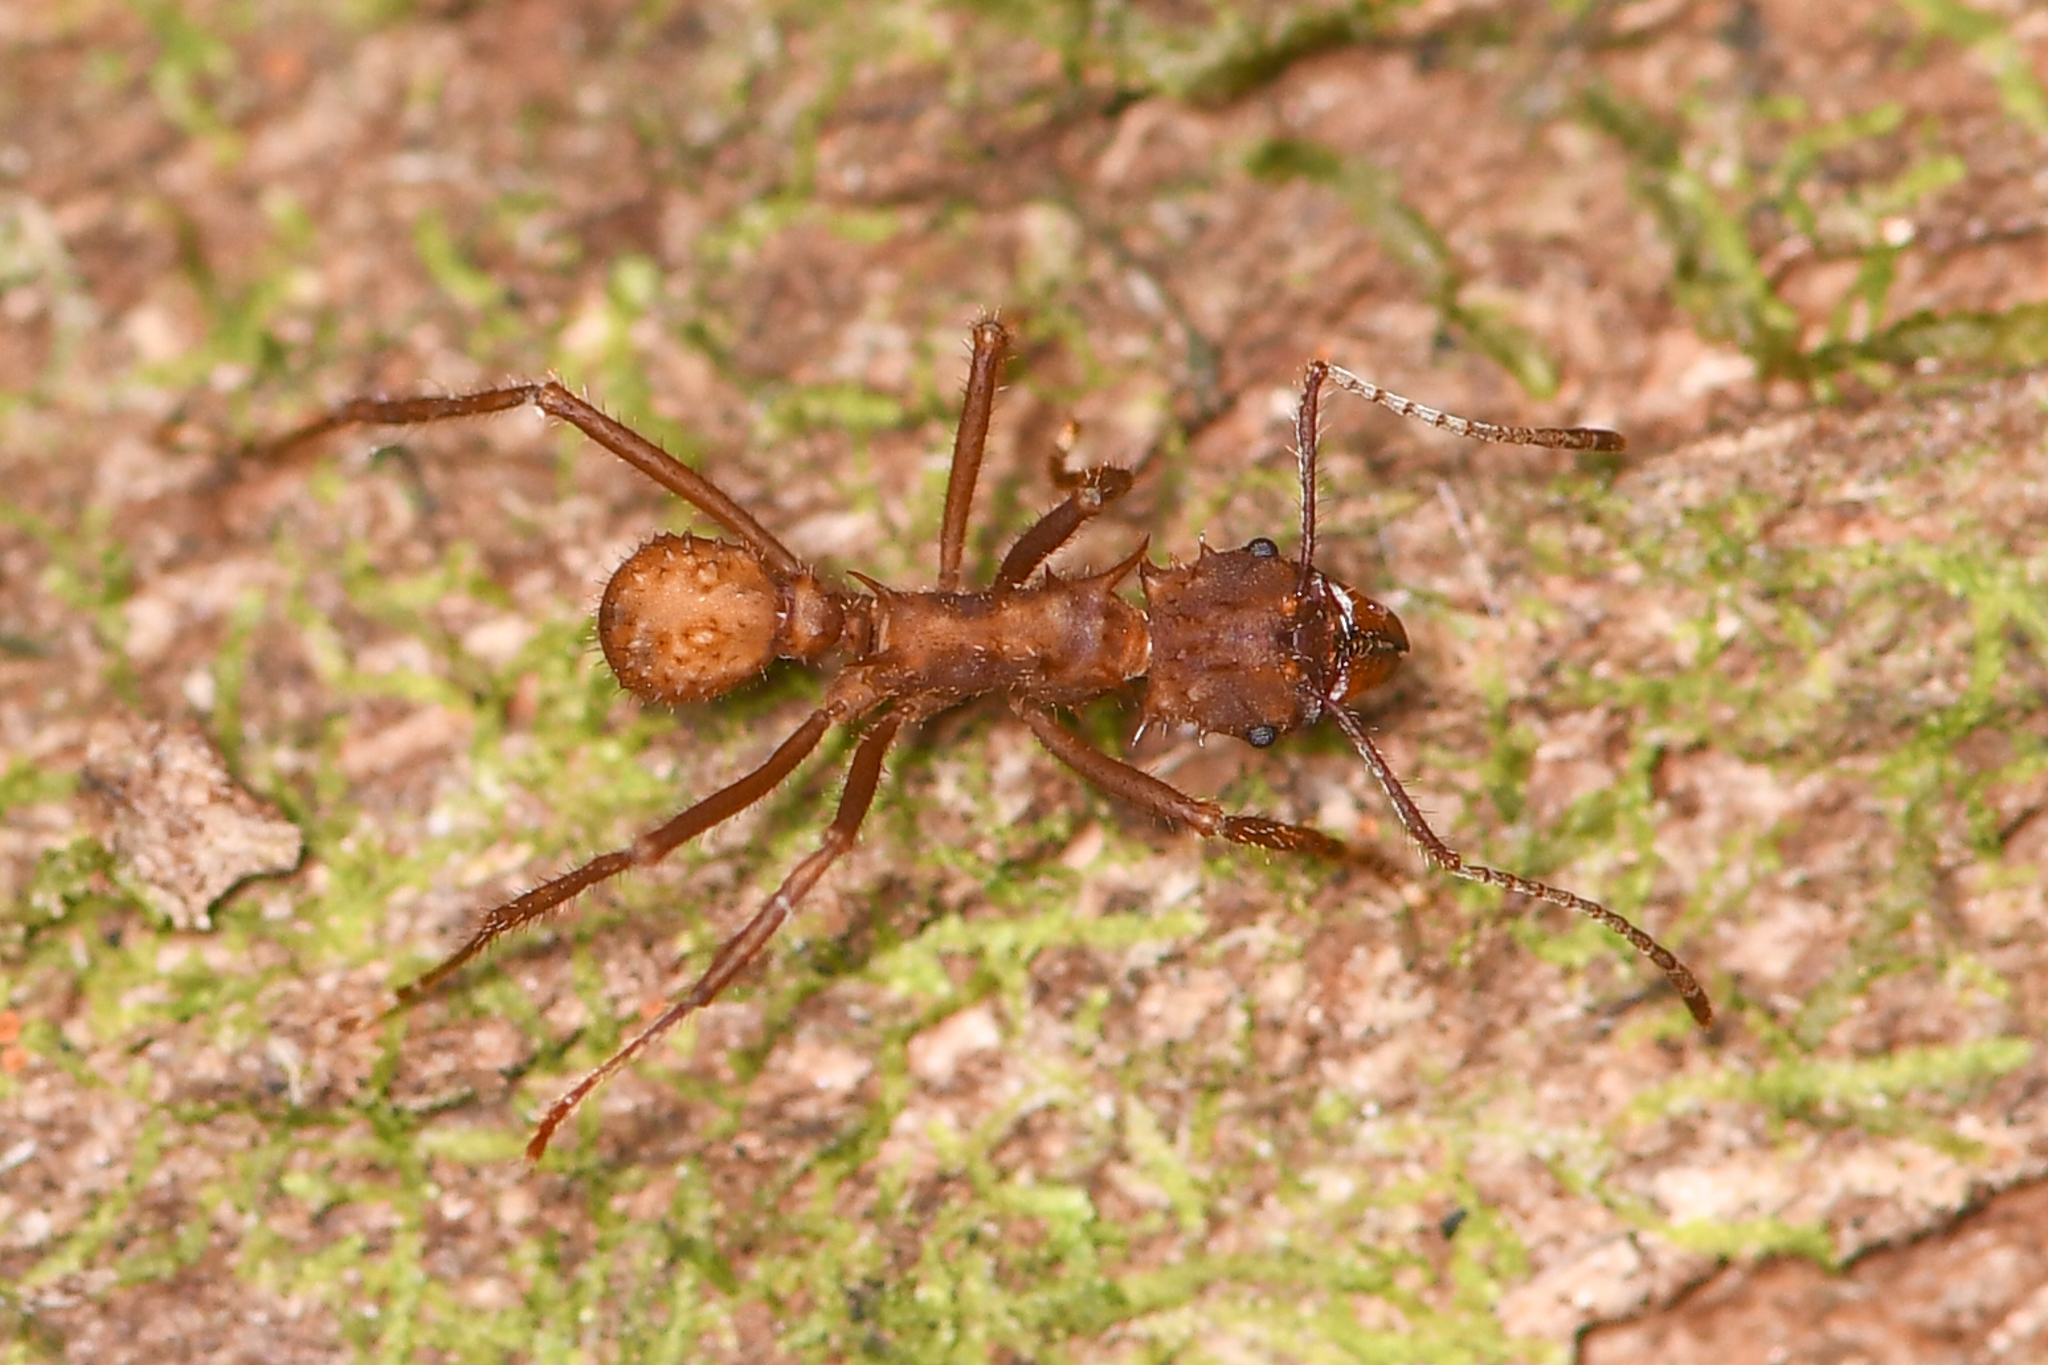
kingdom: Animalia
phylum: Arthropoda
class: Insecta
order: Hymenoptera
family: Formicidae
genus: Acromyrmex
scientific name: Acromyrmex coronatus
